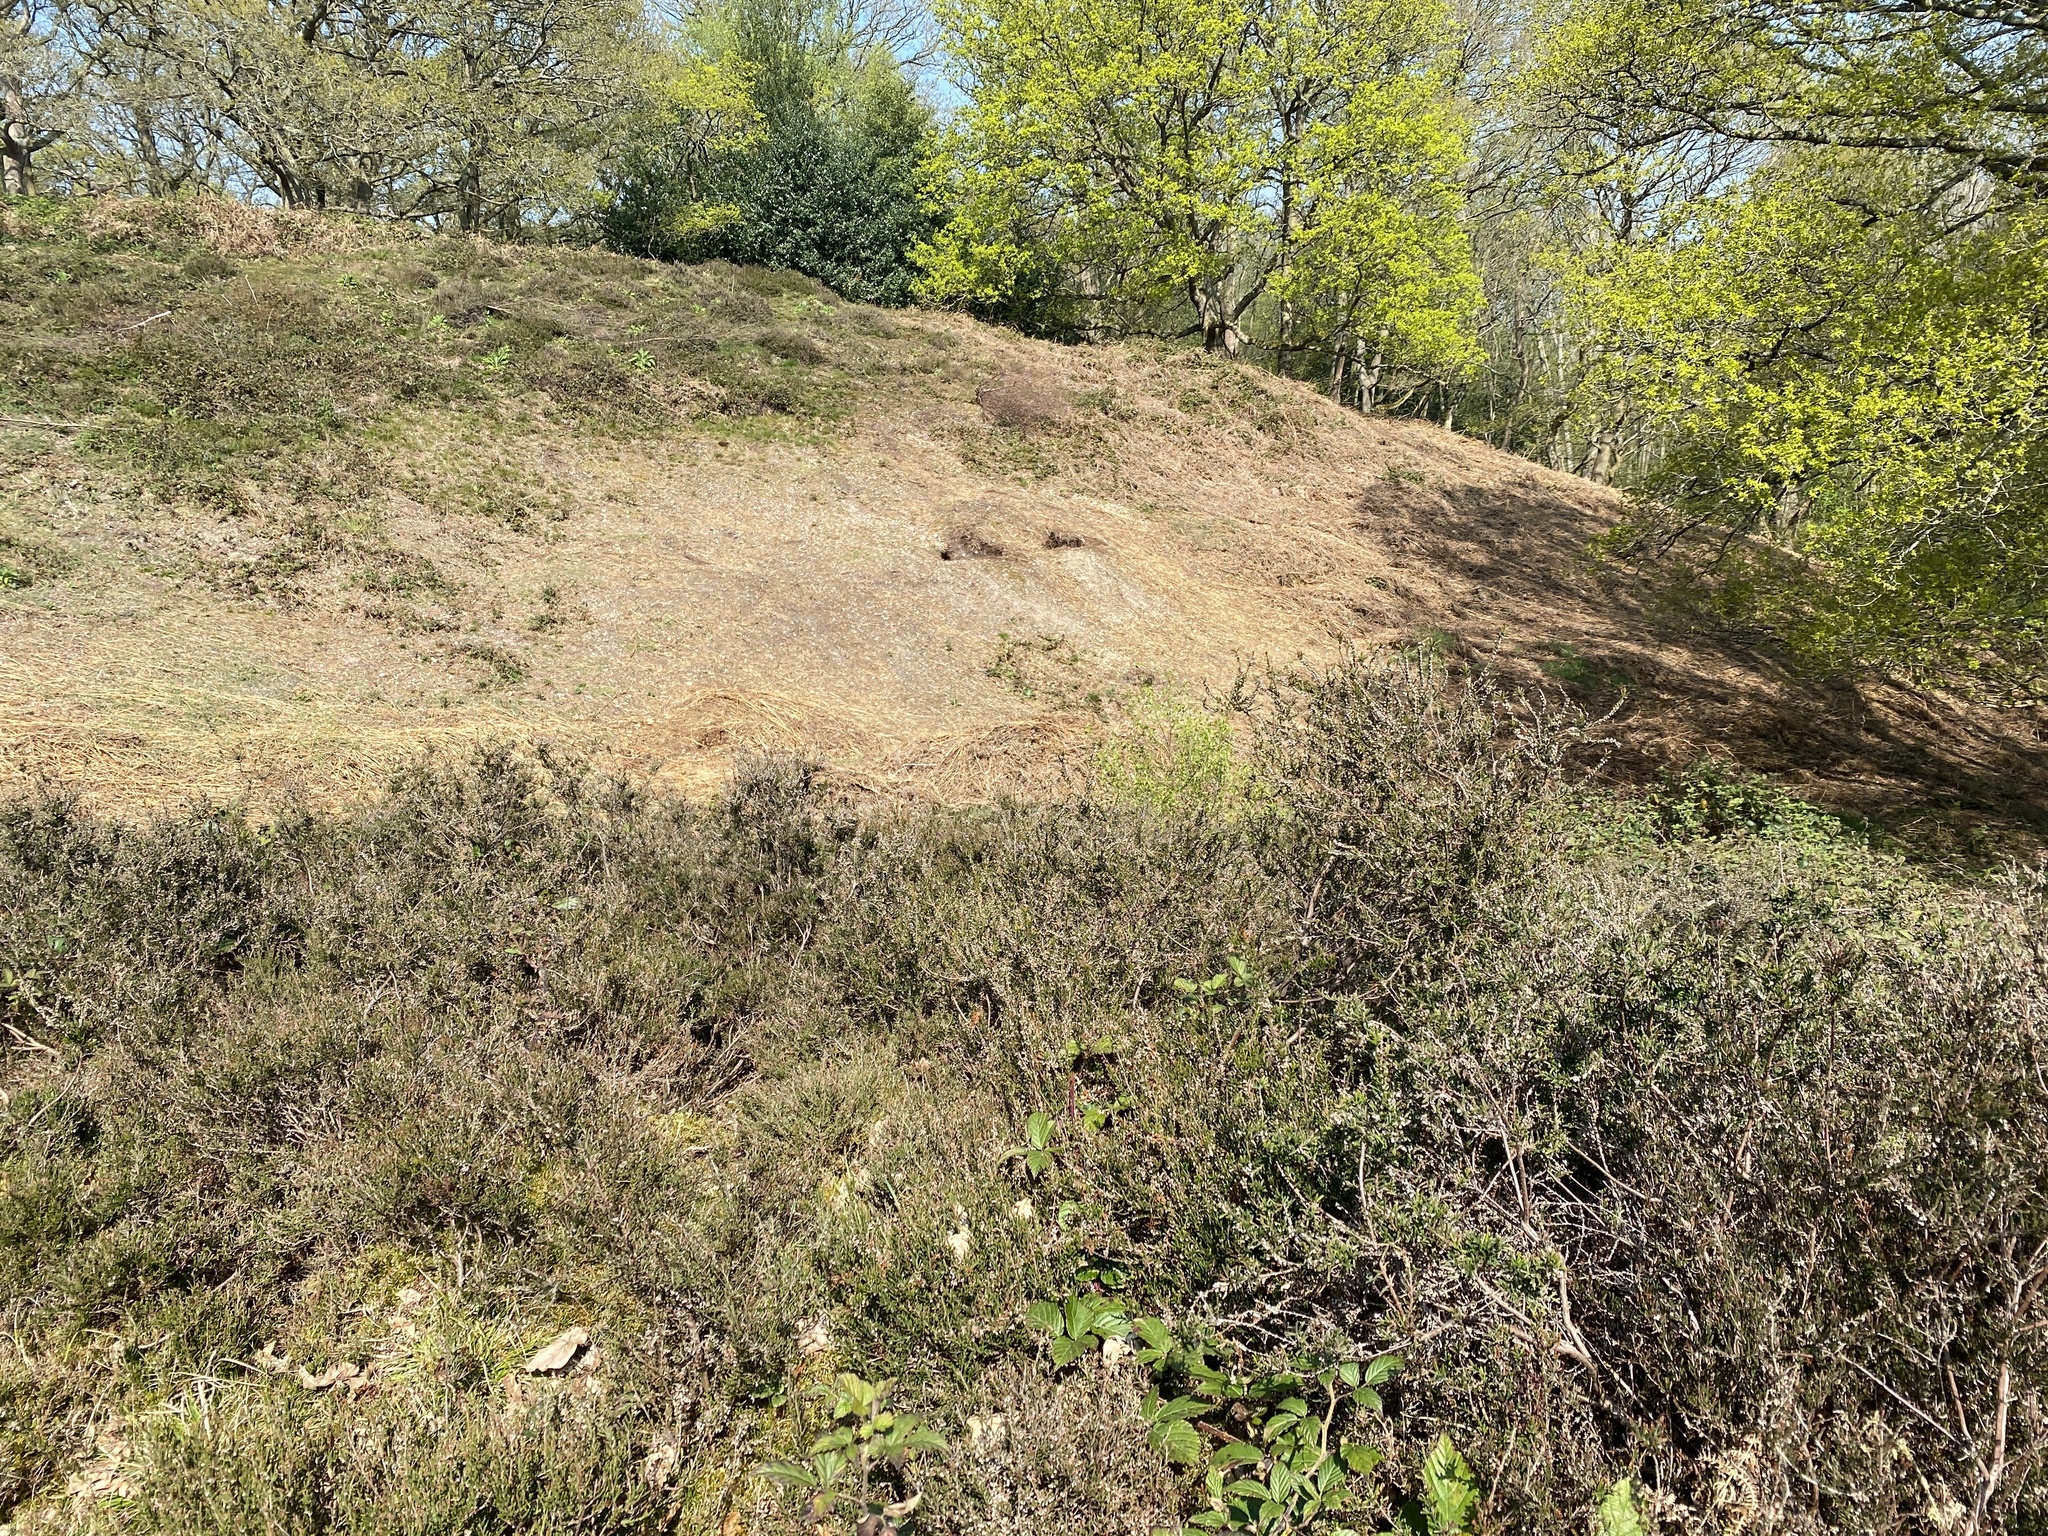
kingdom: Plantae
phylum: Tracheophyta
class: Magnoliopsida
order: Ericales
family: Ericaceae
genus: Calluna
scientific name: Calluna vulgaris
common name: Heather
